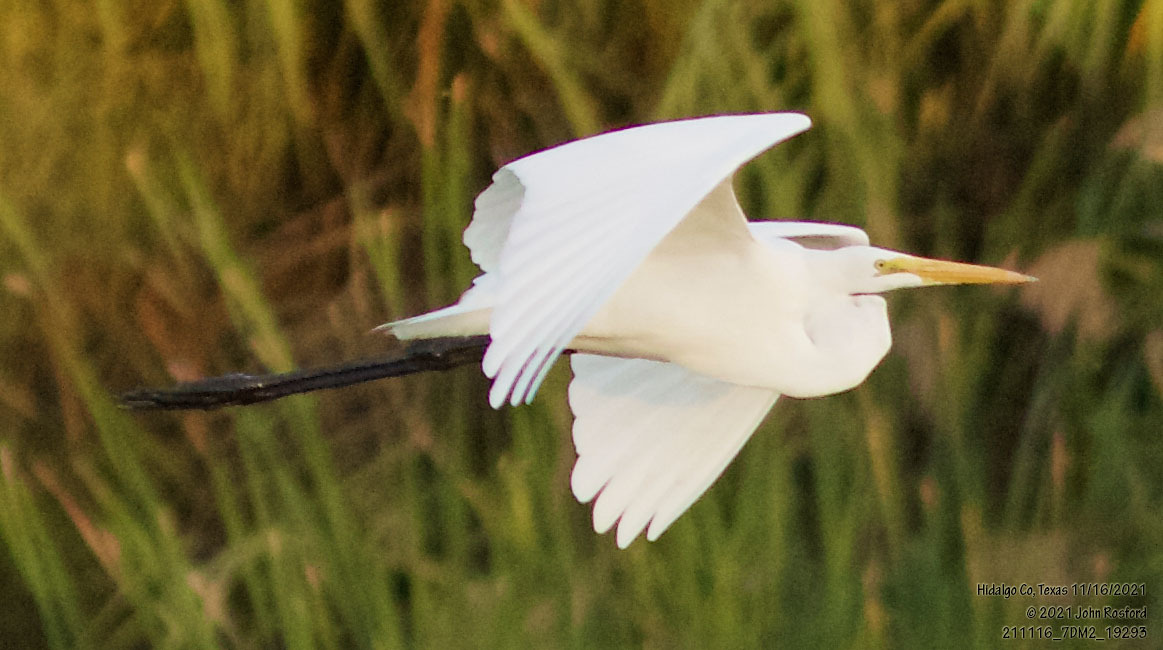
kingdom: Animalia
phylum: Chordata
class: Aves
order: Pelecaniformes
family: Ardeidae
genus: Ardea
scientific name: Ardea alba
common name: Great egret
